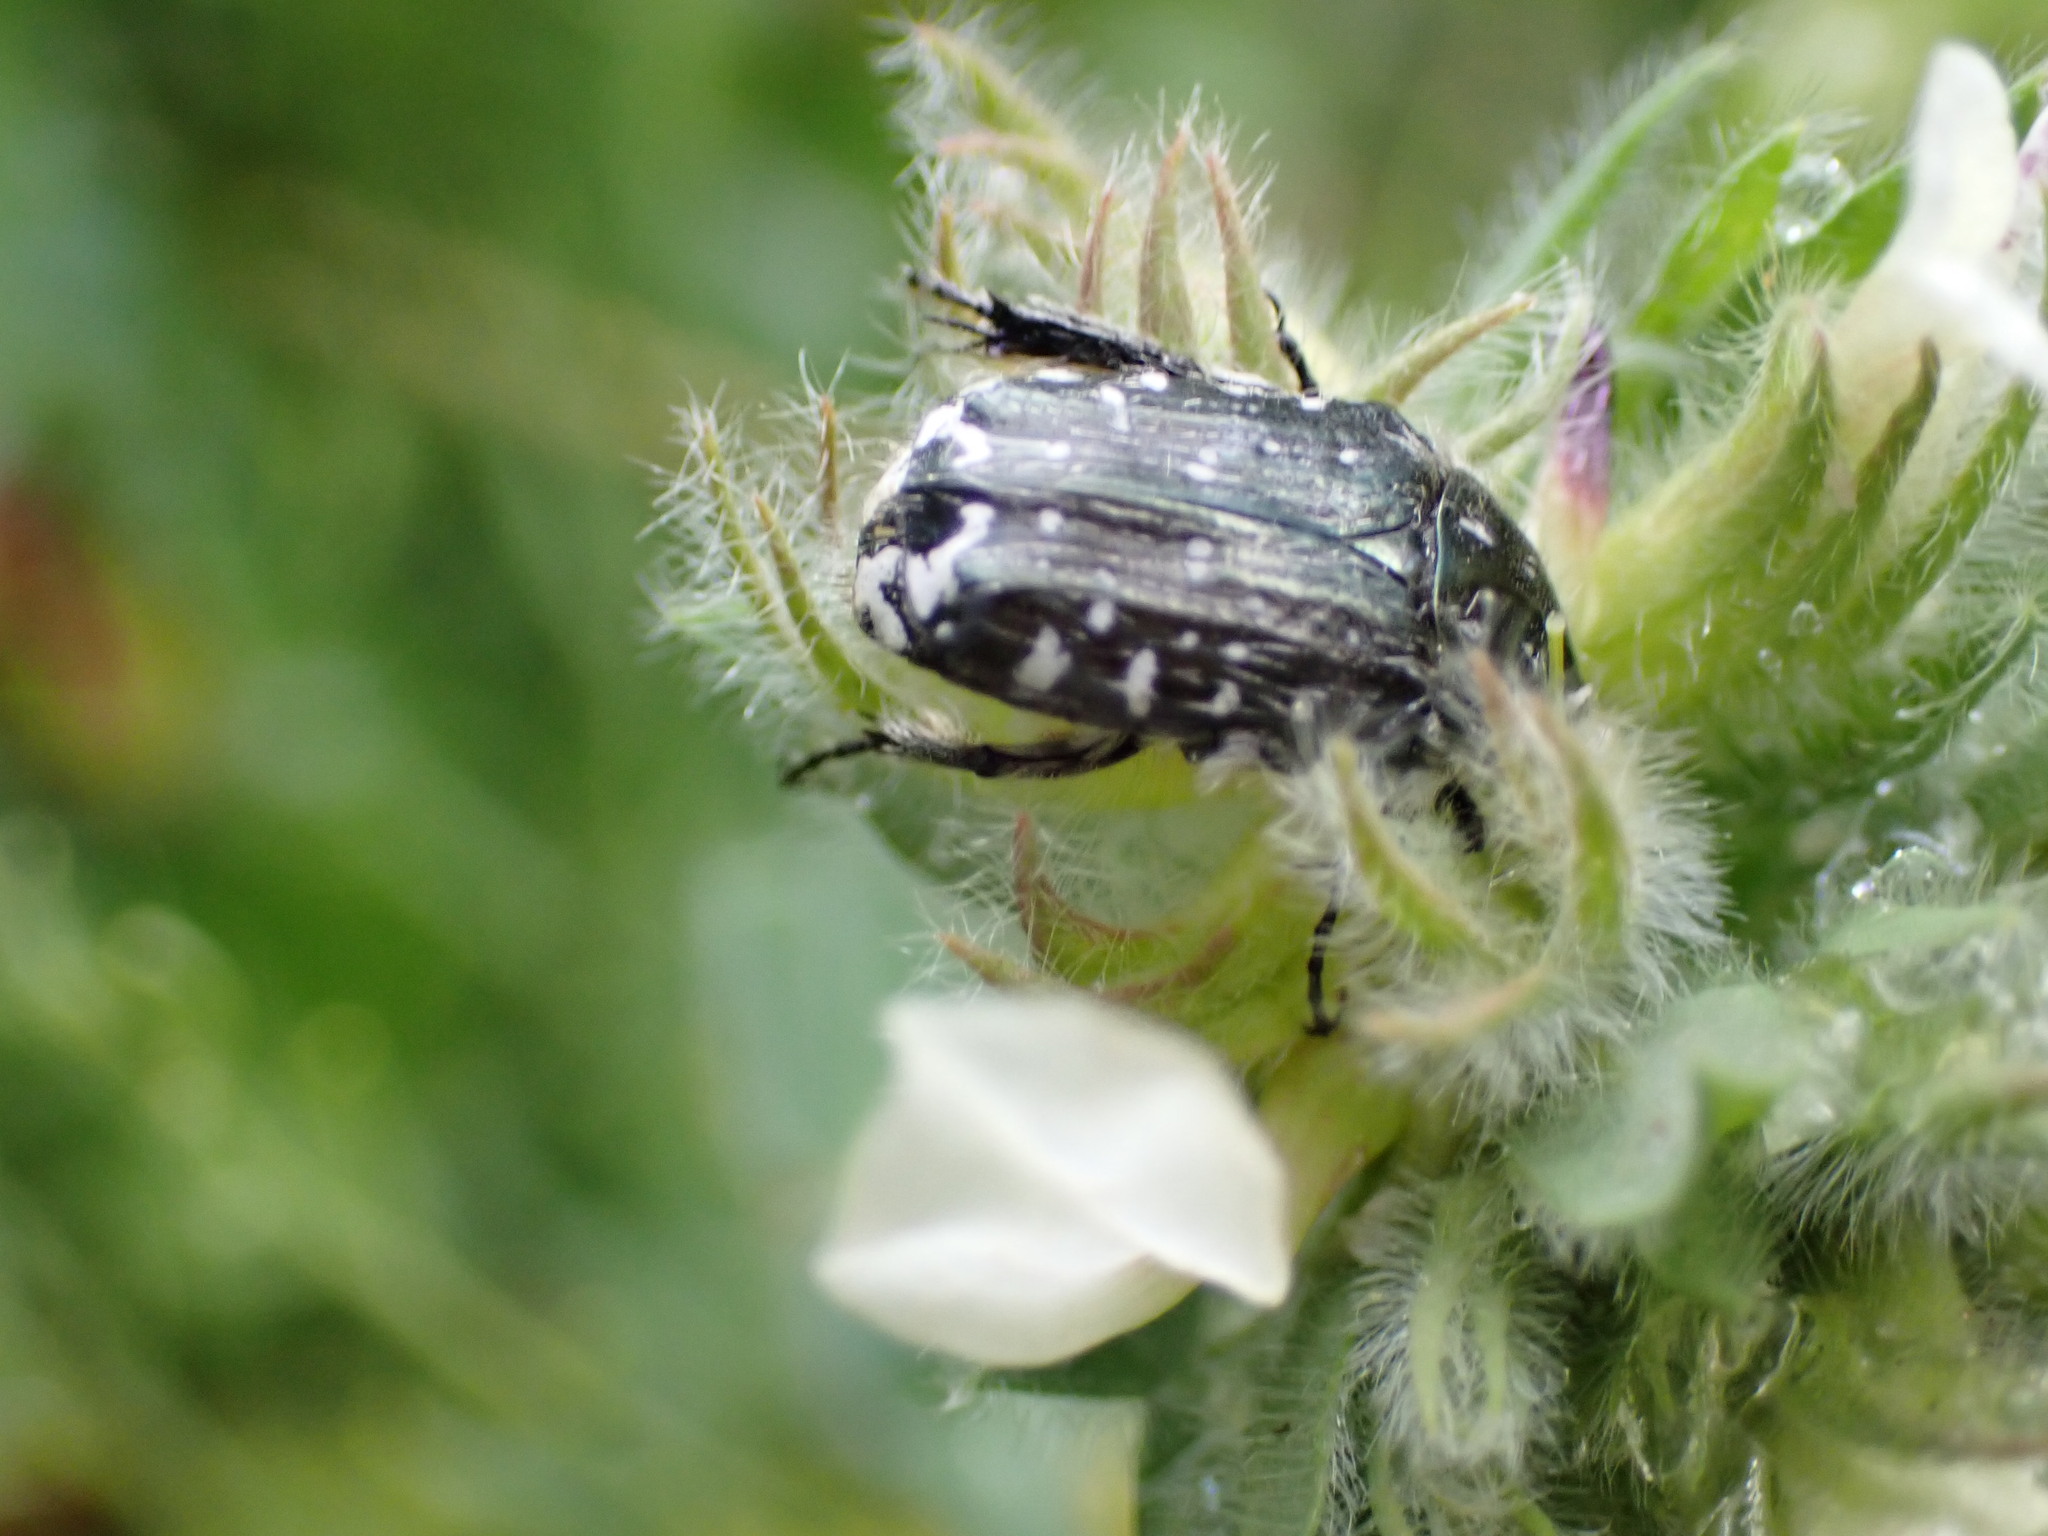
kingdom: Animalia
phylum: Arthropoda
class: Insecta
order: Coleoptera
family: Scarabaeidae
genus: Oxythyrea
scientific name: Oxythyrea funesta
